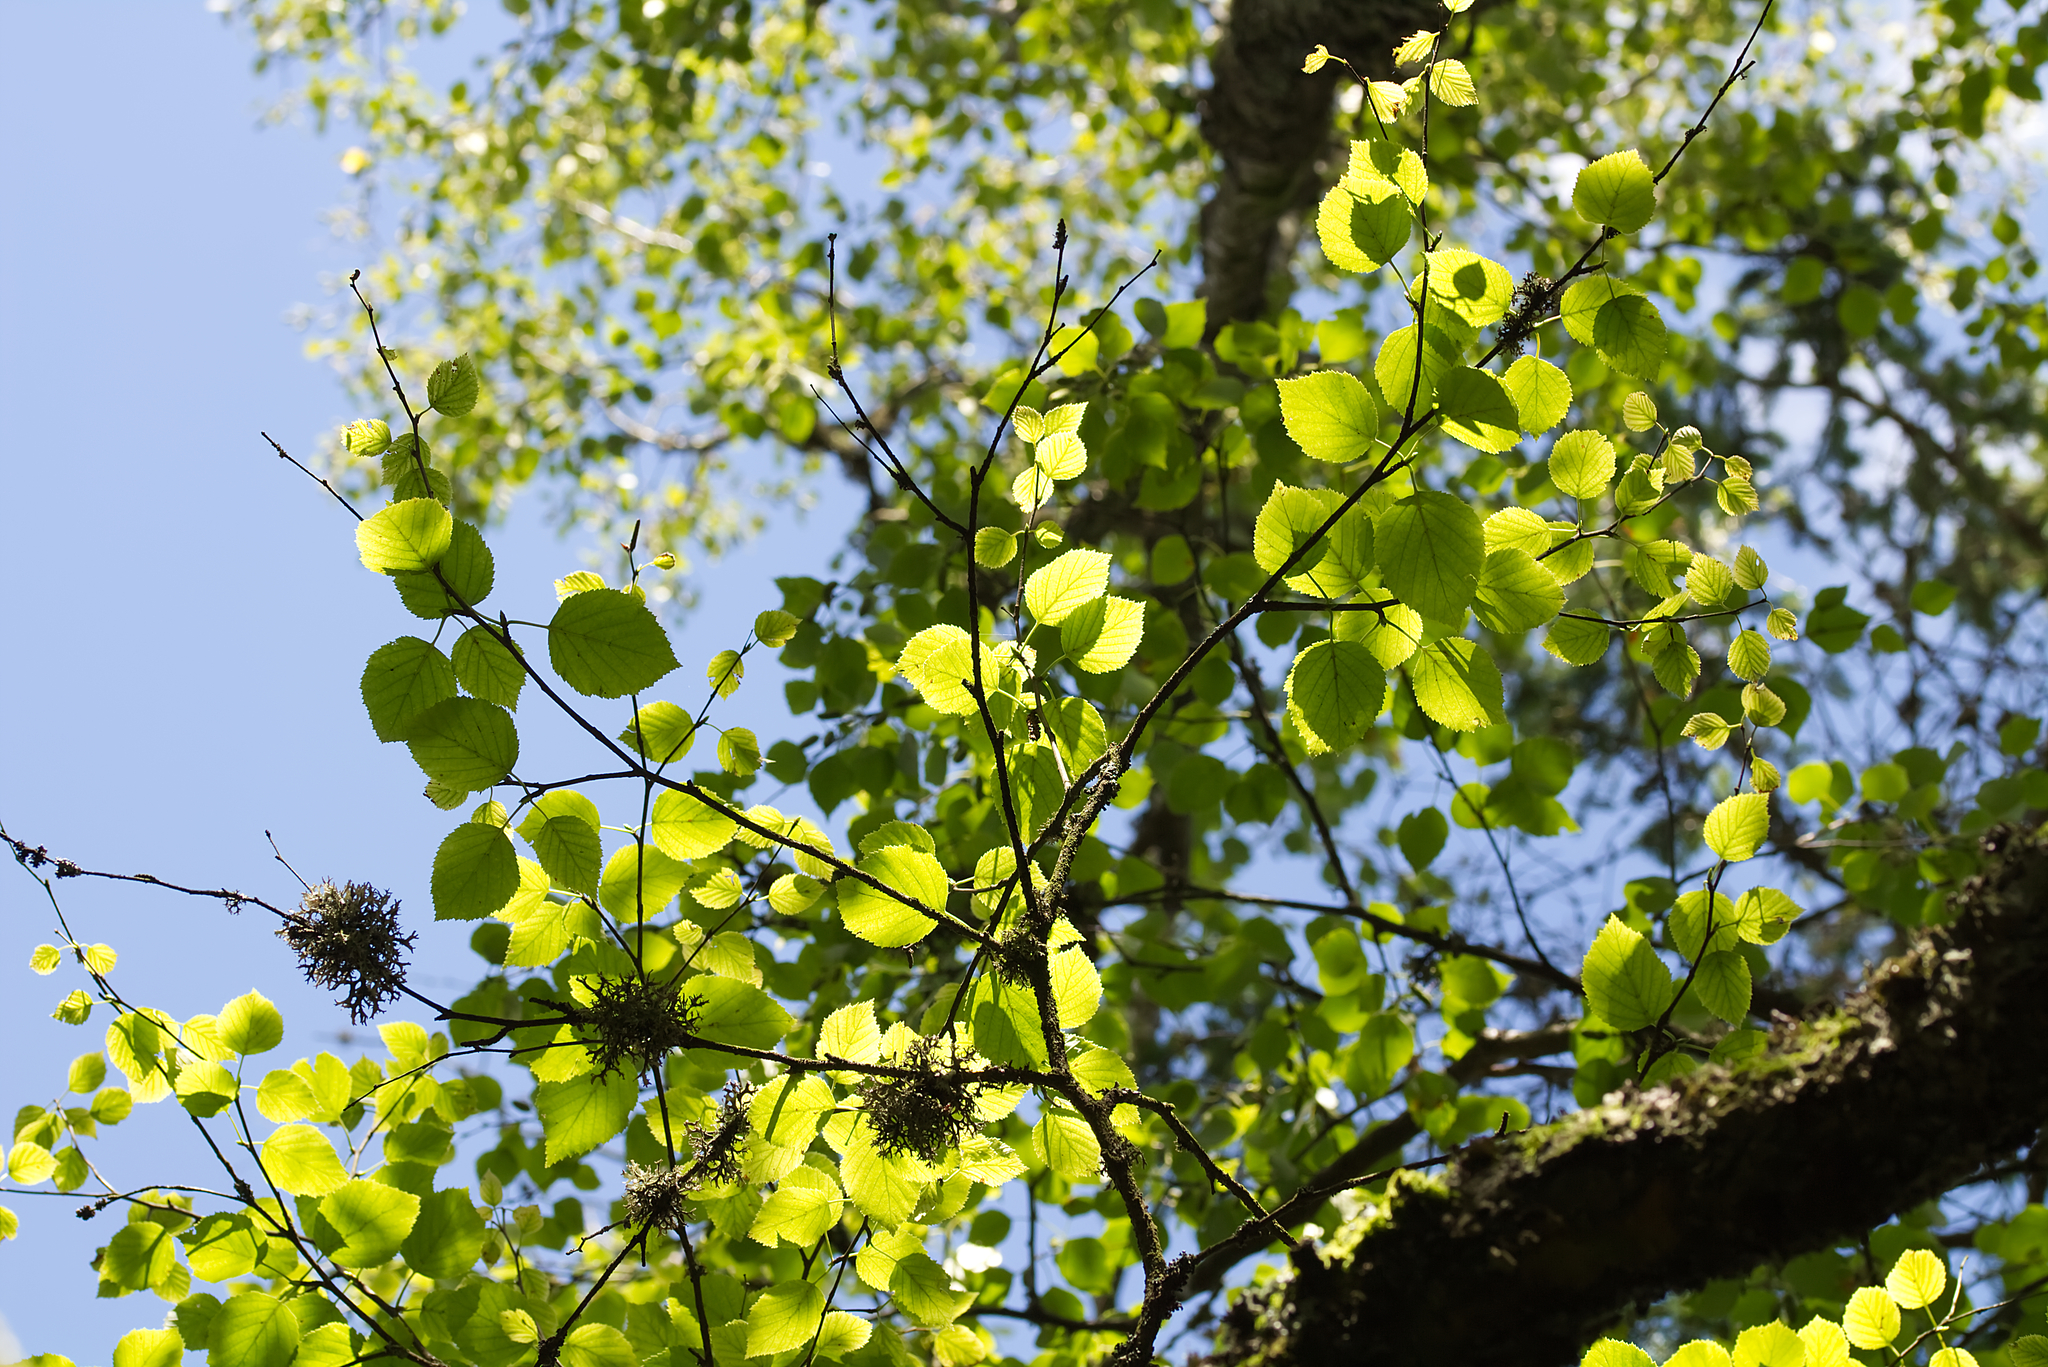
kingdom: Plantae
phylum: Tracheophyta
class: Magnoliopsida
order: Fagales
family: Betulaceae
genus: Betula
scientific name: Betula pubescens
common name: Downy birch
